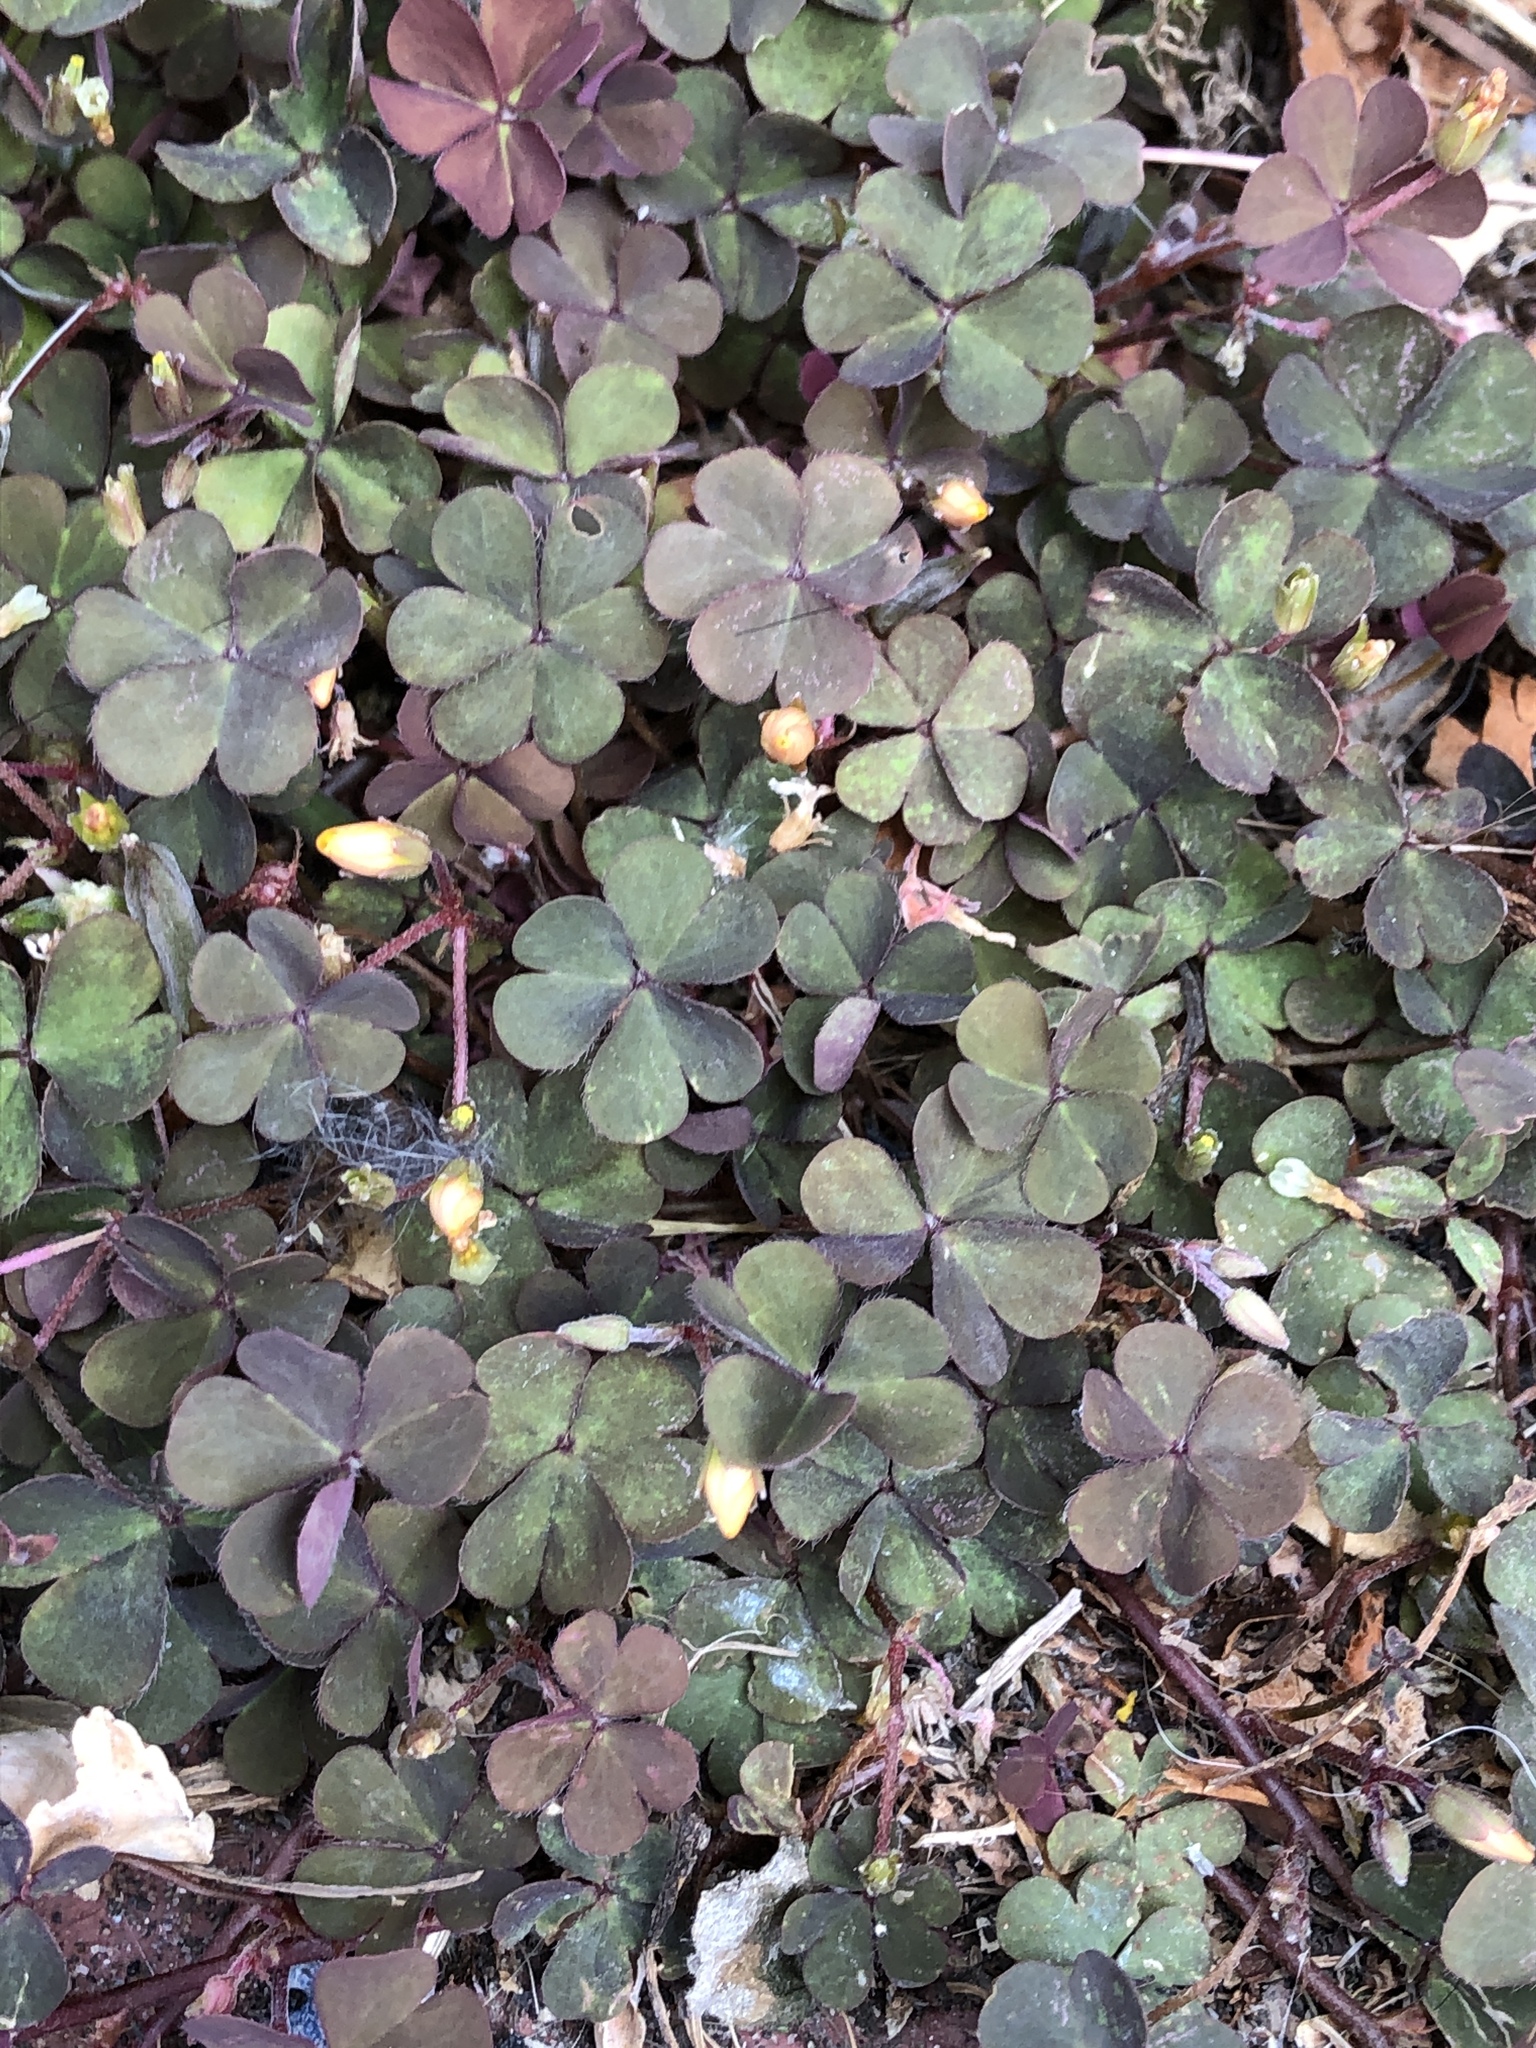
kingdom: Plantae
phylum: Tracheophyta
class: Magnoliopsida
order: Oxalidales
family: Oxalidaceae
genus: Oxalis
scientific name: Oxalis corniculata
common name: Procumbent yellow-sorrel
